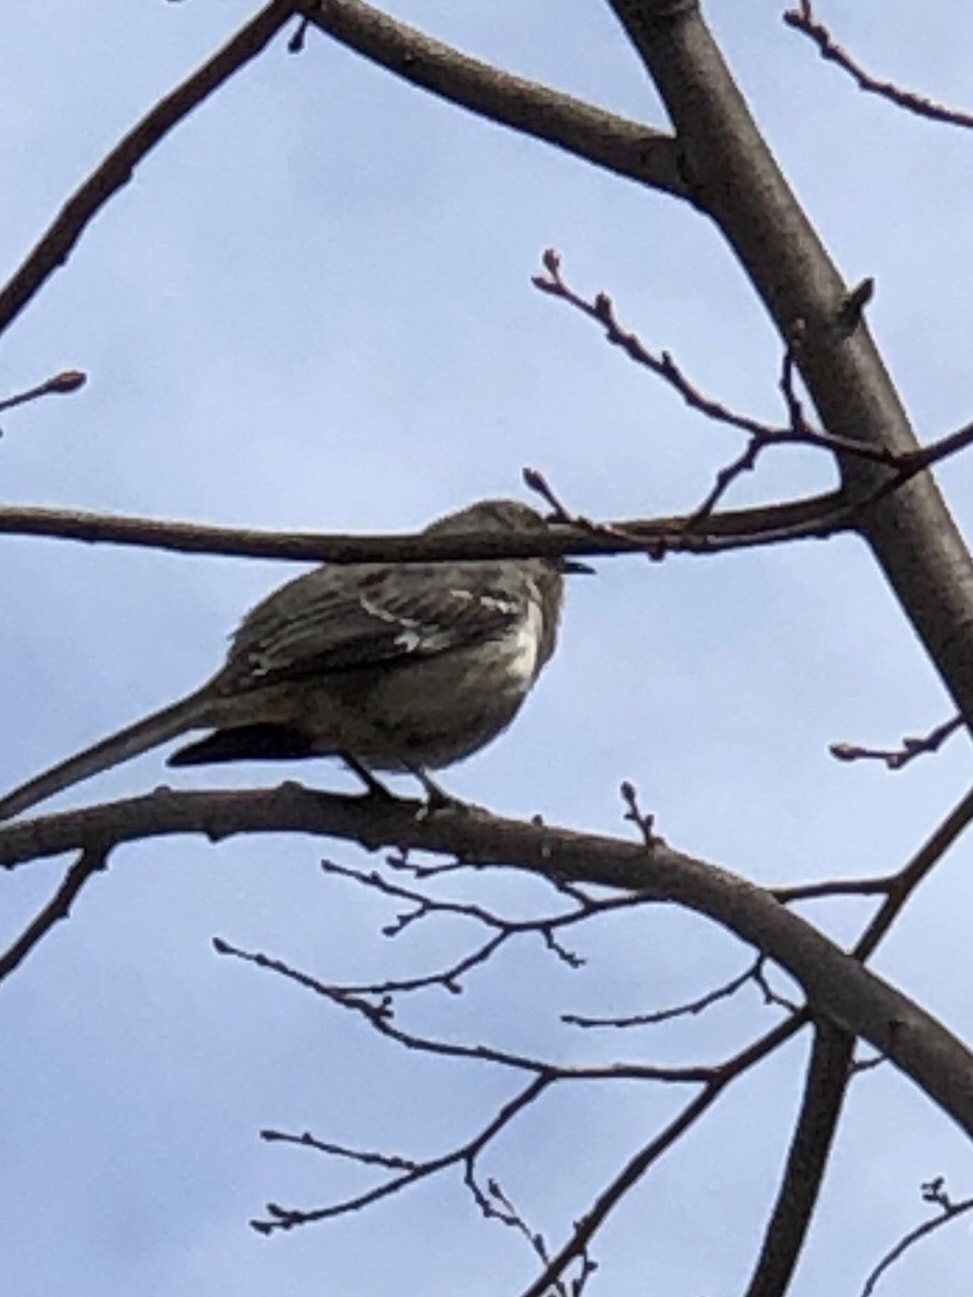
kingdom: Animalia
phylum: Chordata
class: Aves
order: Passeriformes
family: Mimidae
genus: Mimus
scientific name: Mimus polyglottos
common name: Northern mockingbird
